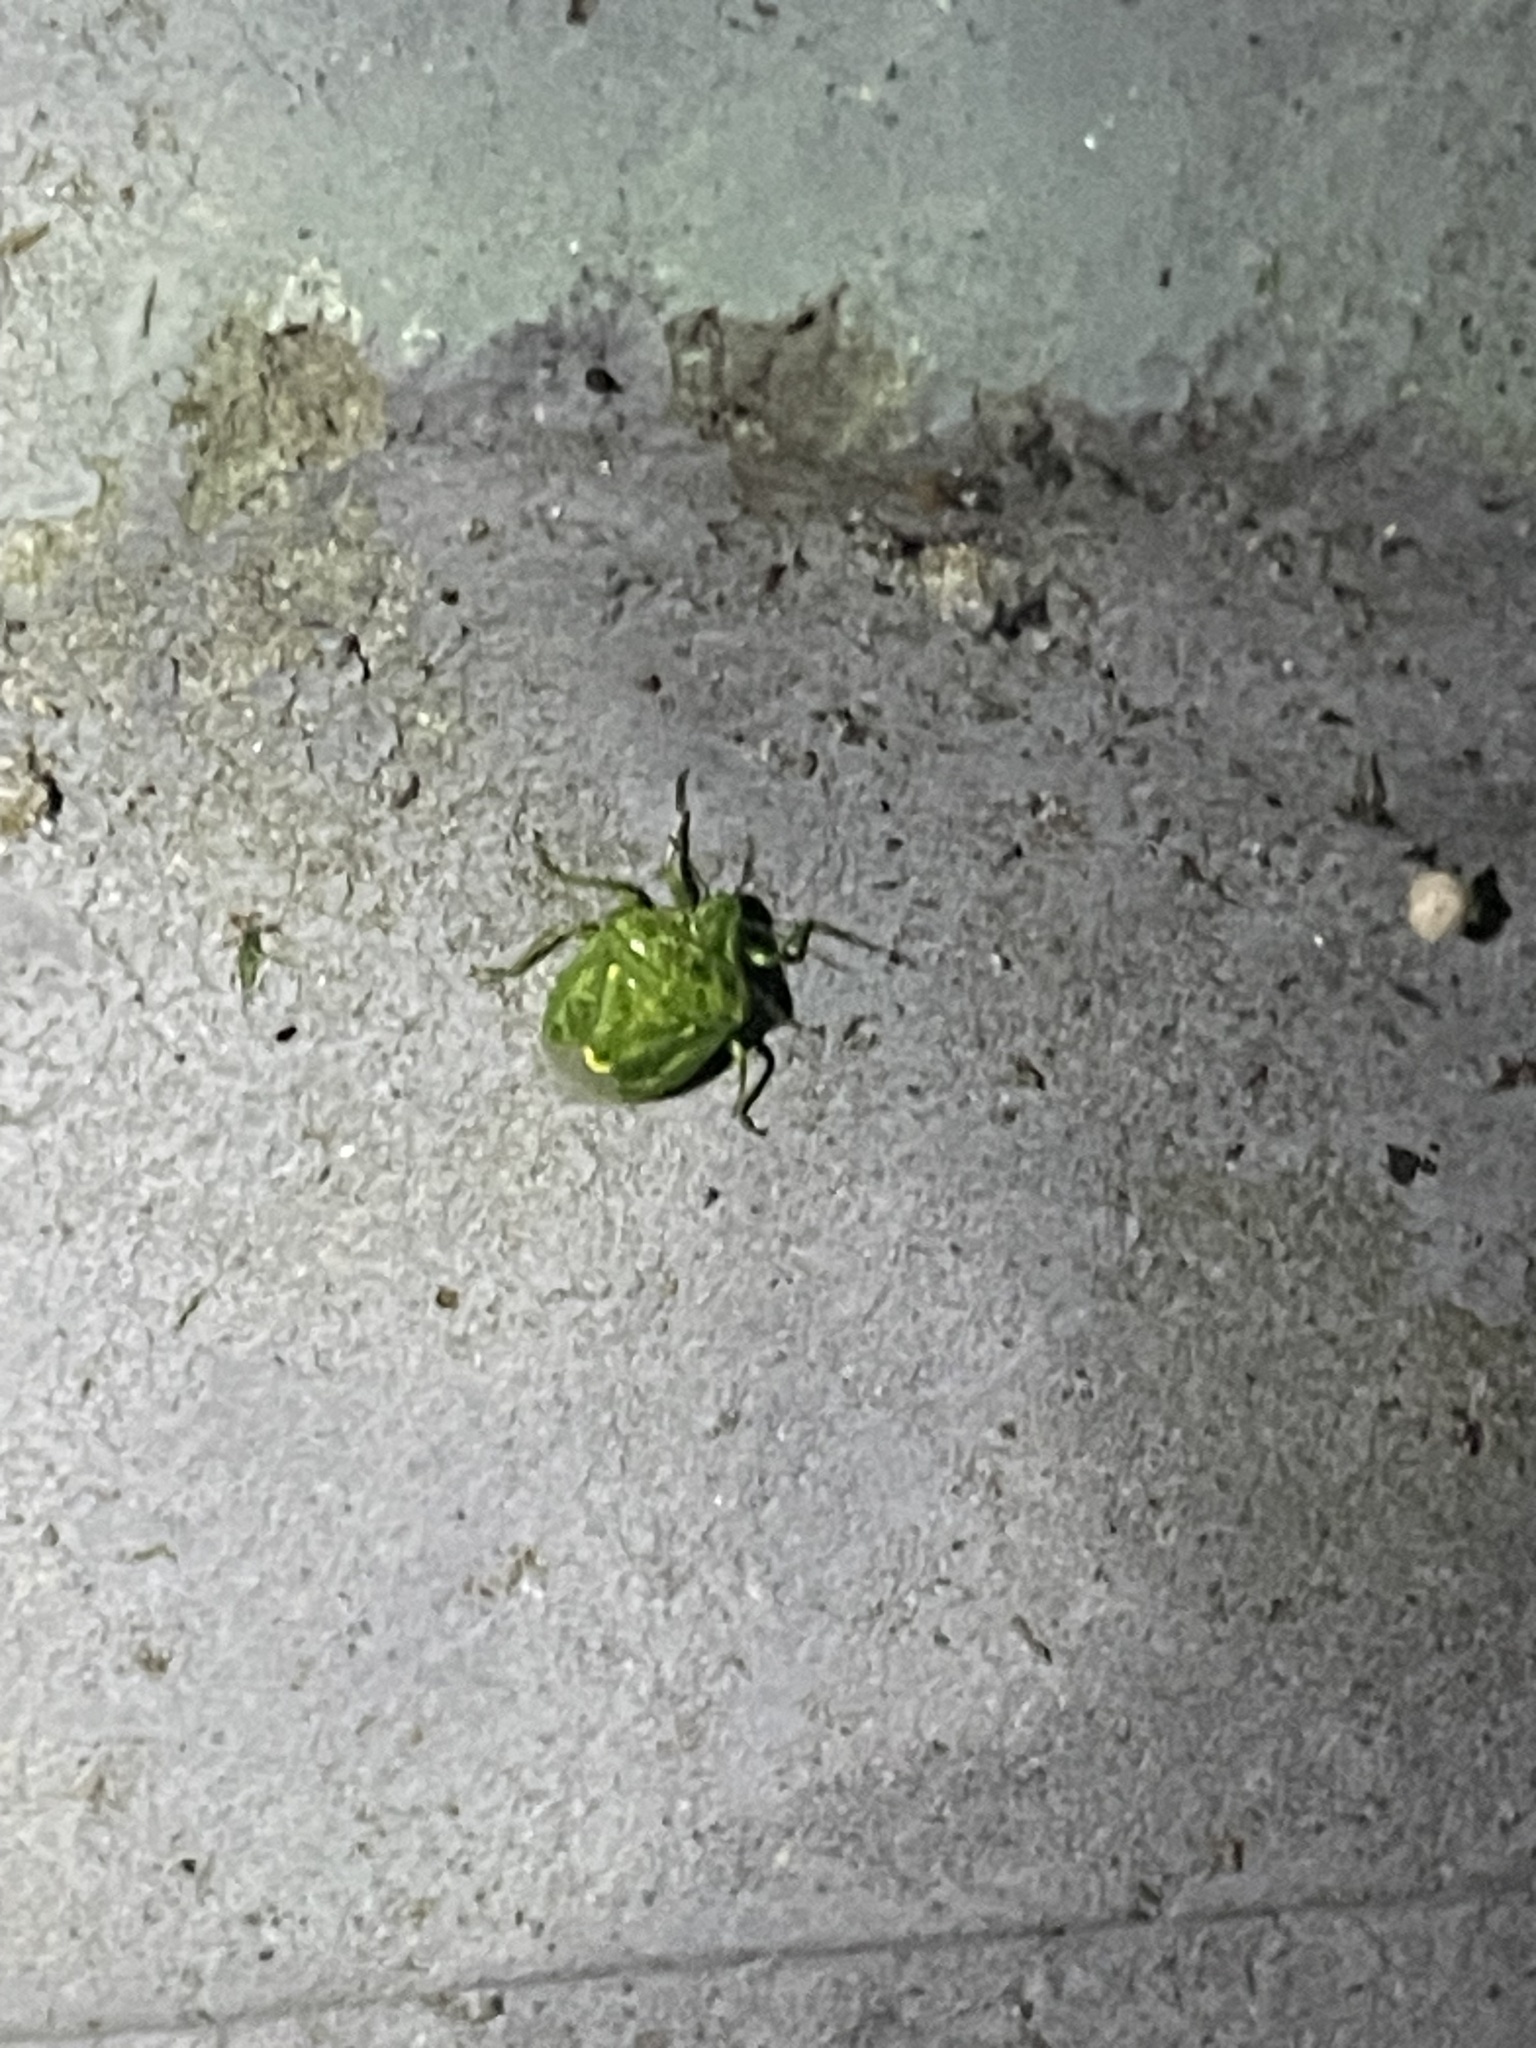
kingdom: Animalia
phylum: Arthropoda
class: Insecta
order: Hemiptera
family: Pentatomidae
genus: Banasa
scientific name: Banasa euchlora
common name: Cedar berry bug
